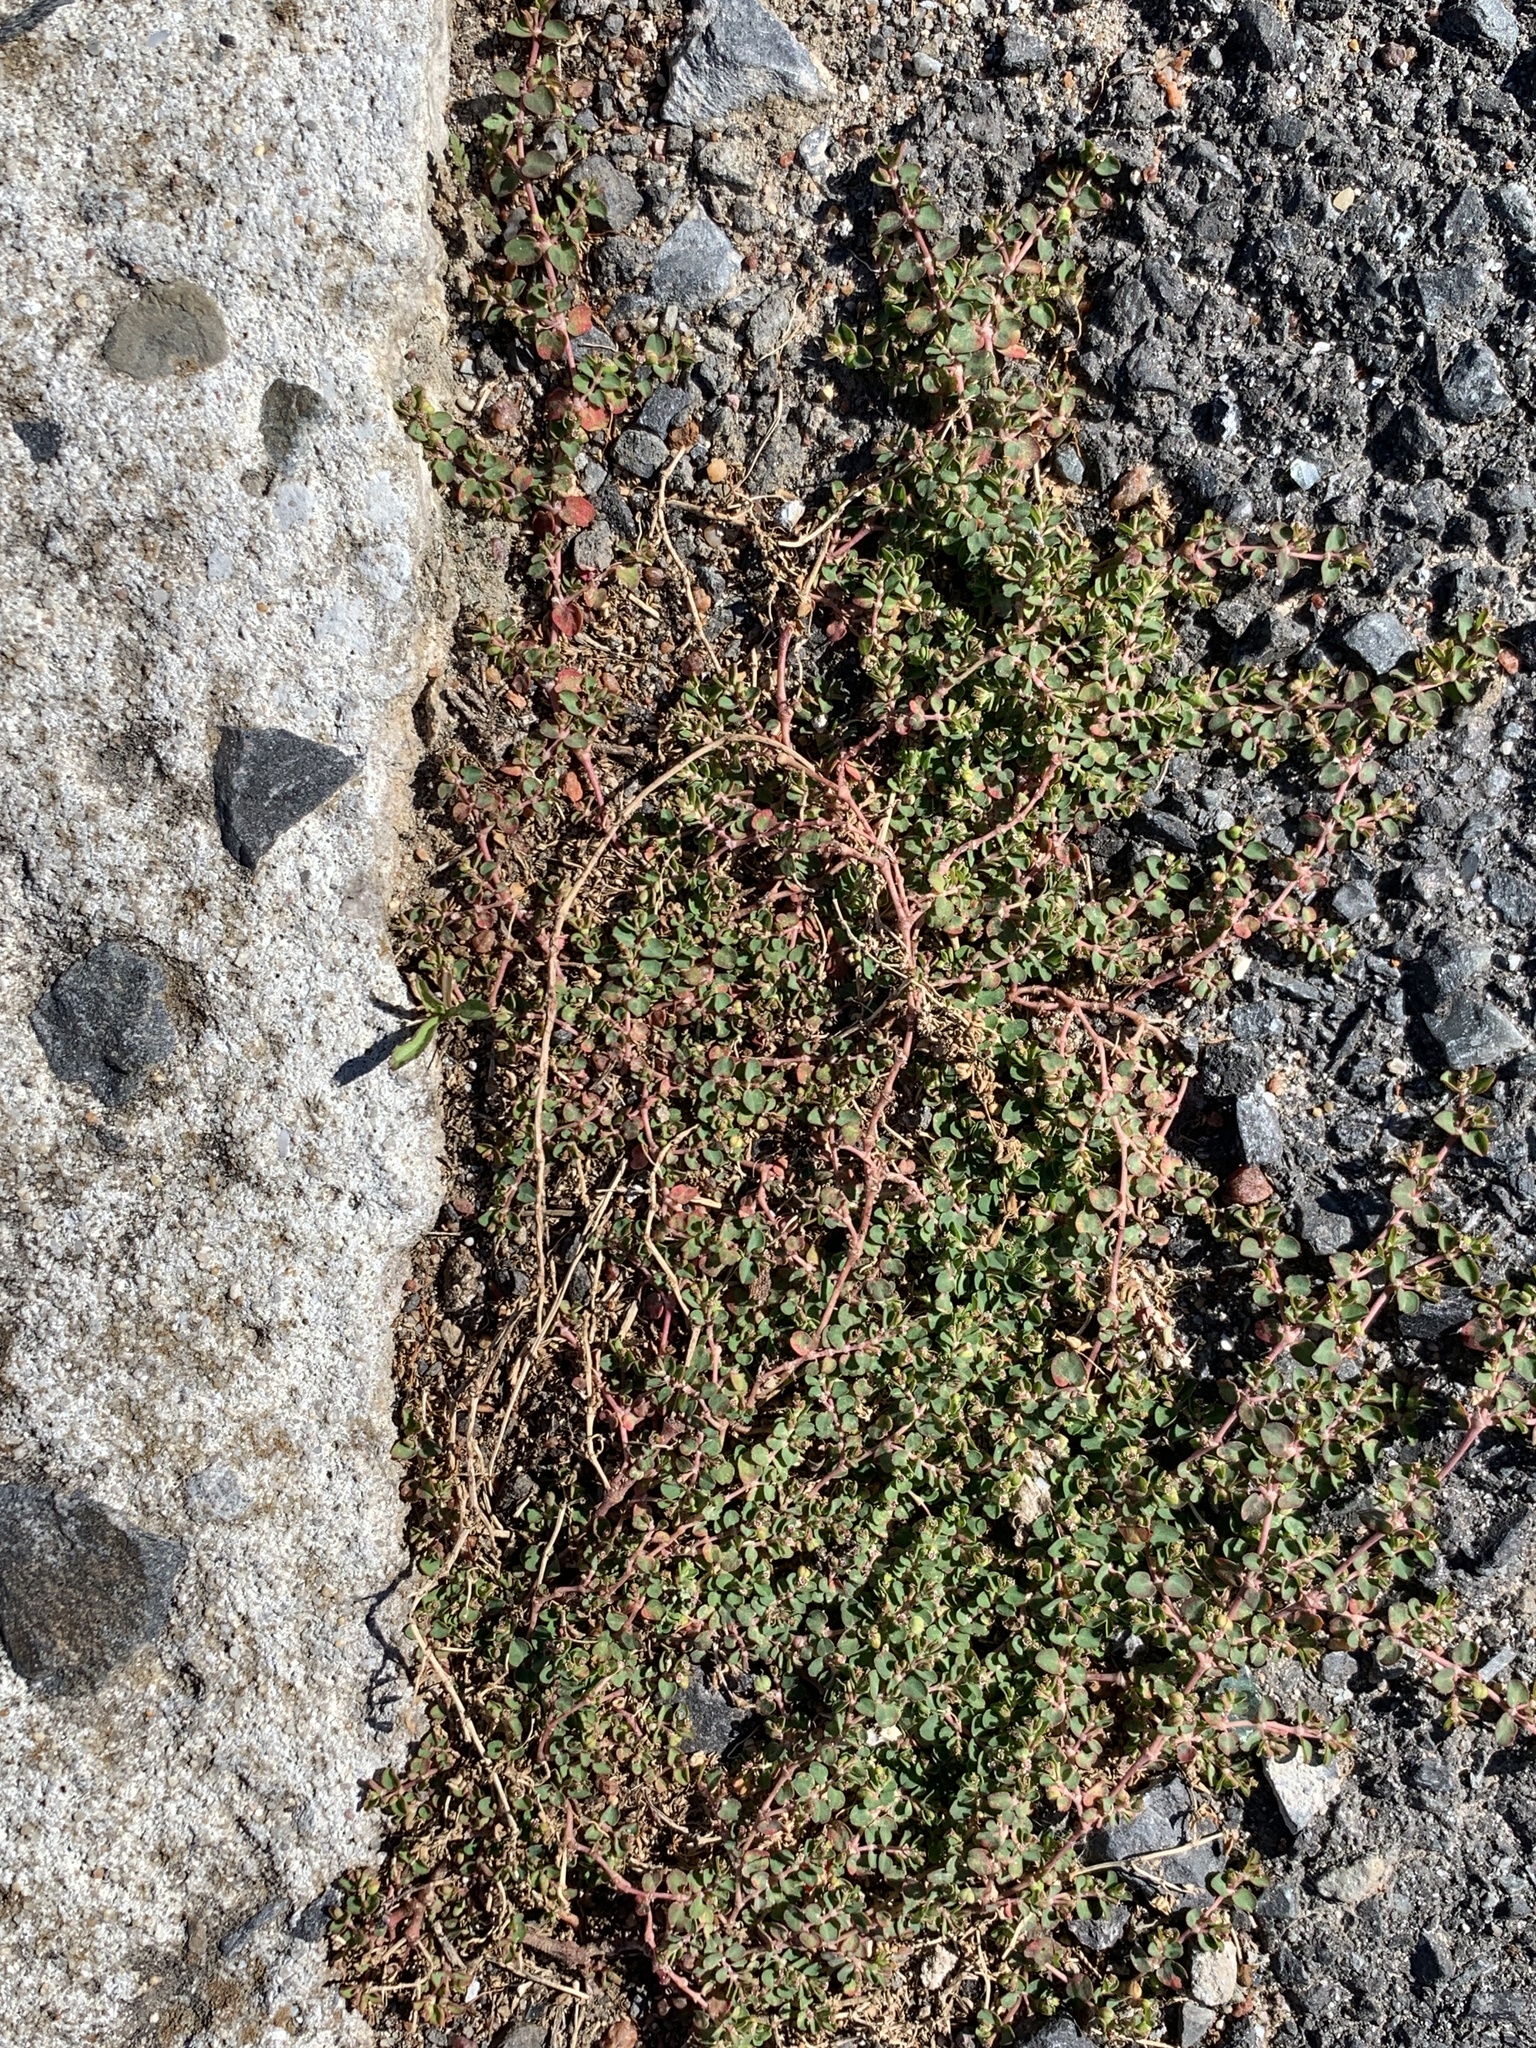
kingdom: Plantae
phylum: Tracheophyta
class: Magnoliopsida
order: Malpighiales
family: Euphorbiaceae
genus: Euphorbia
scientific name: Euphorbia serpens
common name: Matted sandmat
